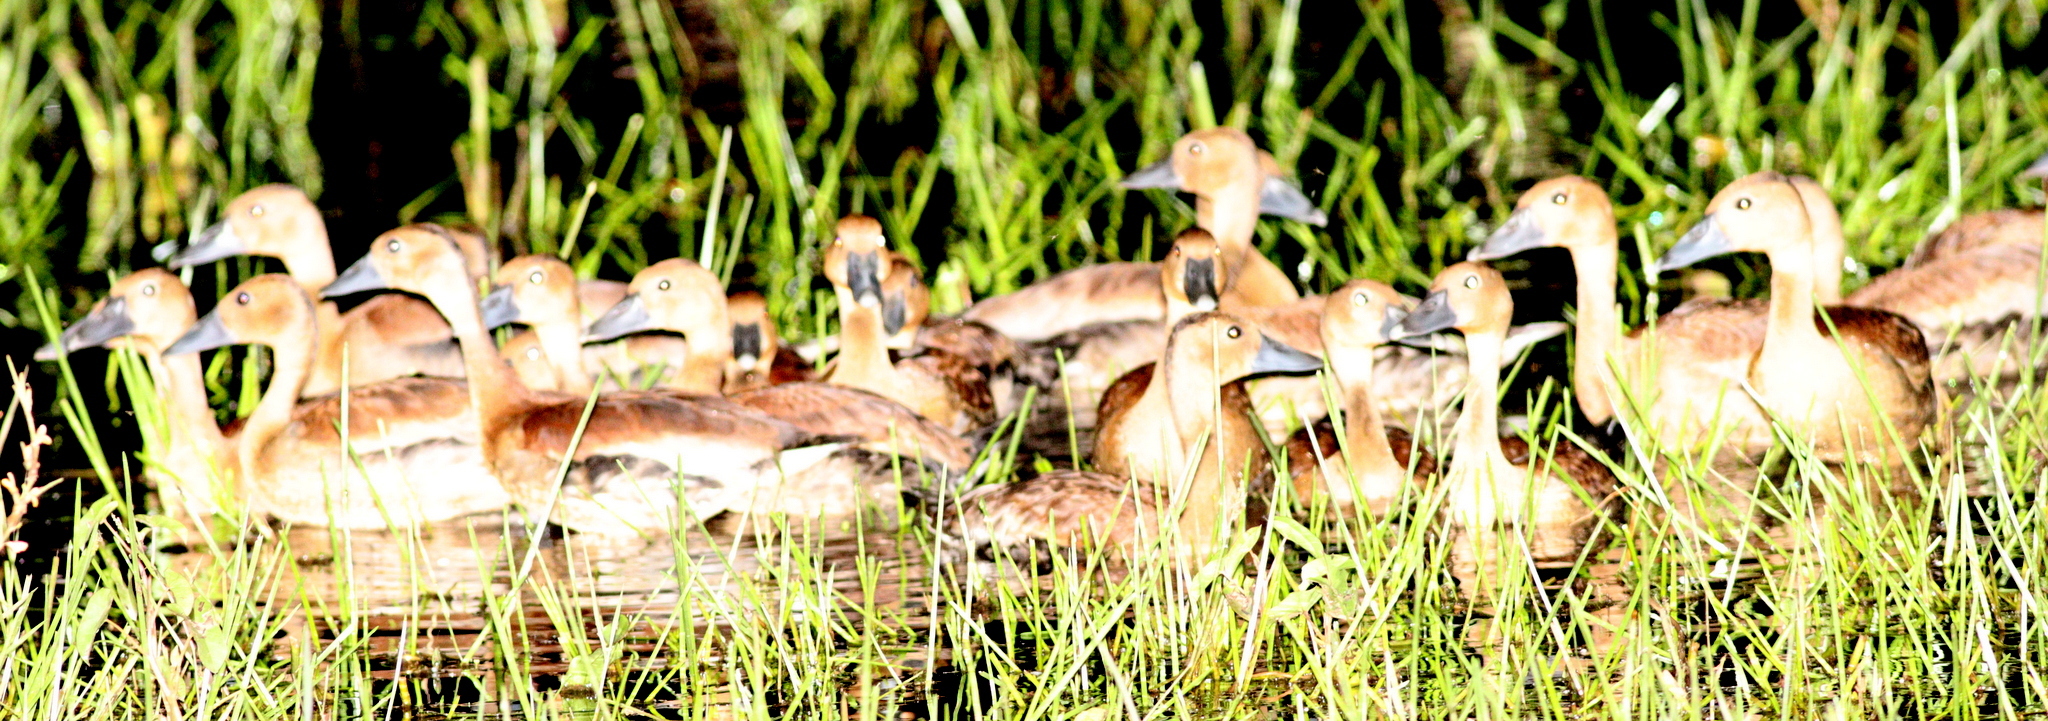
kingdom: Animalia
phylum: Chordata
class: Aves
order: Anseriformes
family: Anatidae
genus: Dendrocygna
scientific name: Dendrocygna autumnalis
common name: Black-bellied whistling duck
